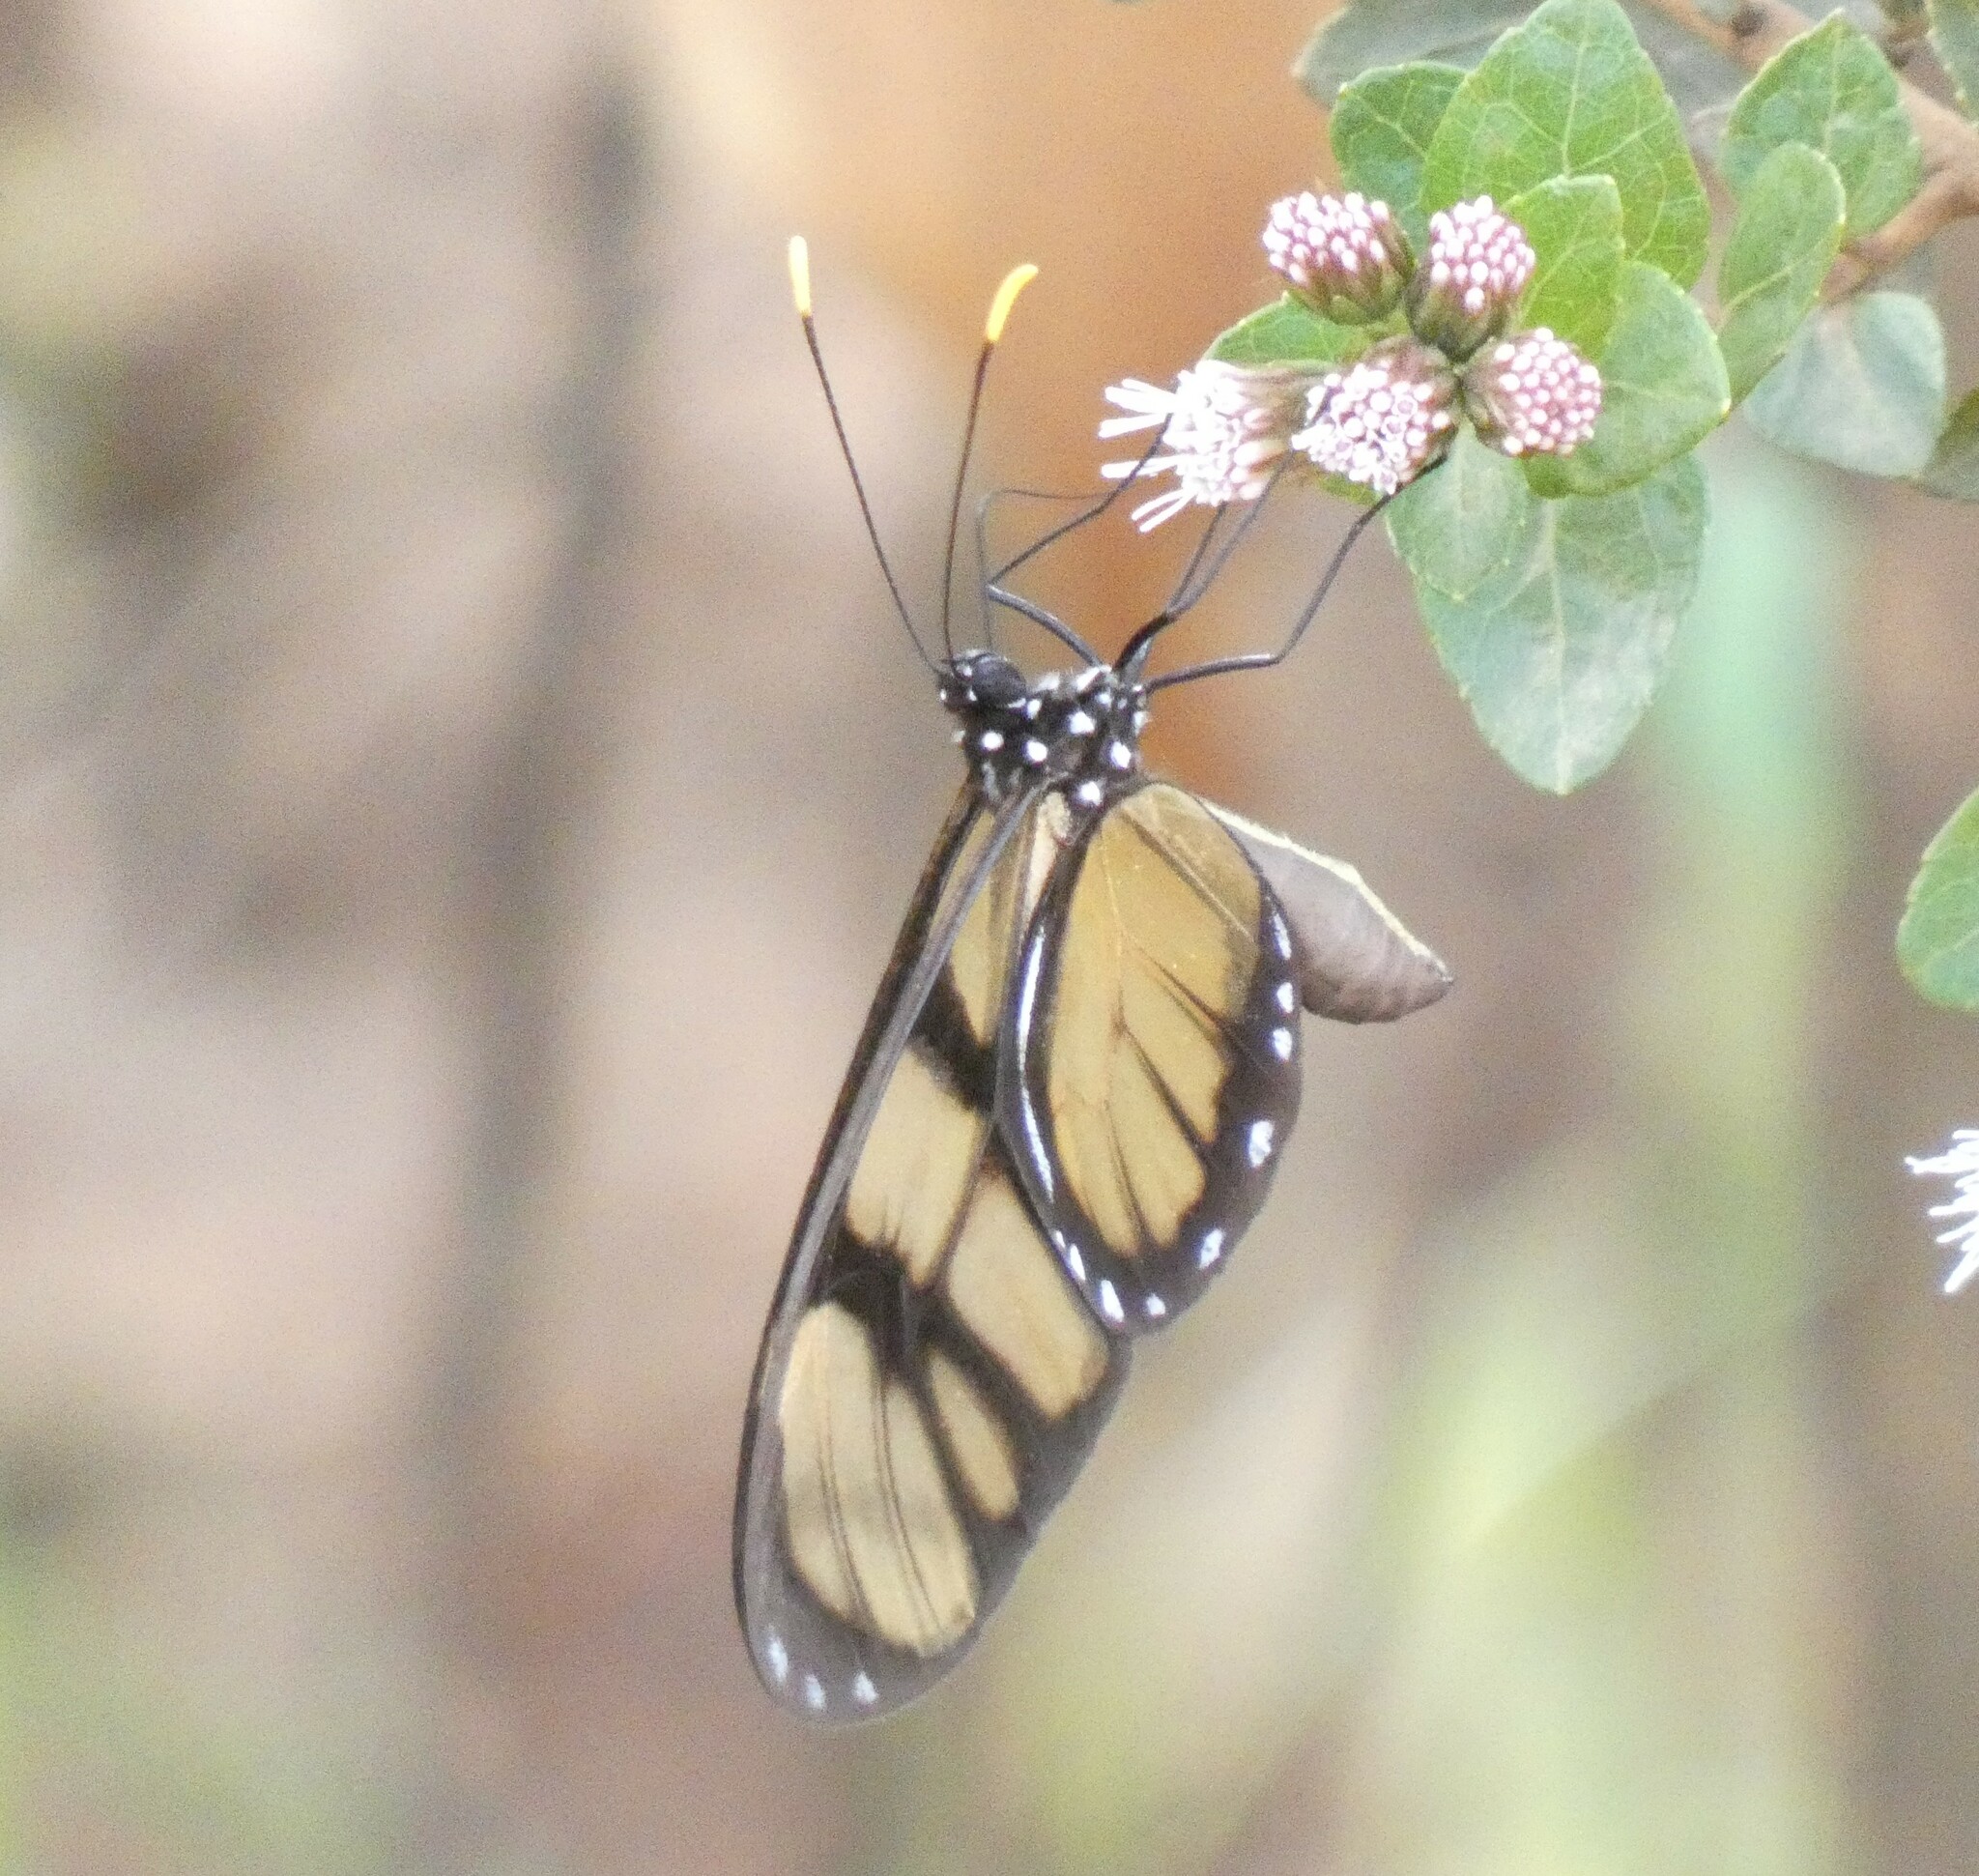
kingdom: Animalia
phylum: Arthropoda
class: Insecta
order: Lepidoptera
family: Nymphalidae
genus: Dircenna
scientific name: Dircenna dero
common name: Dero clearwing
